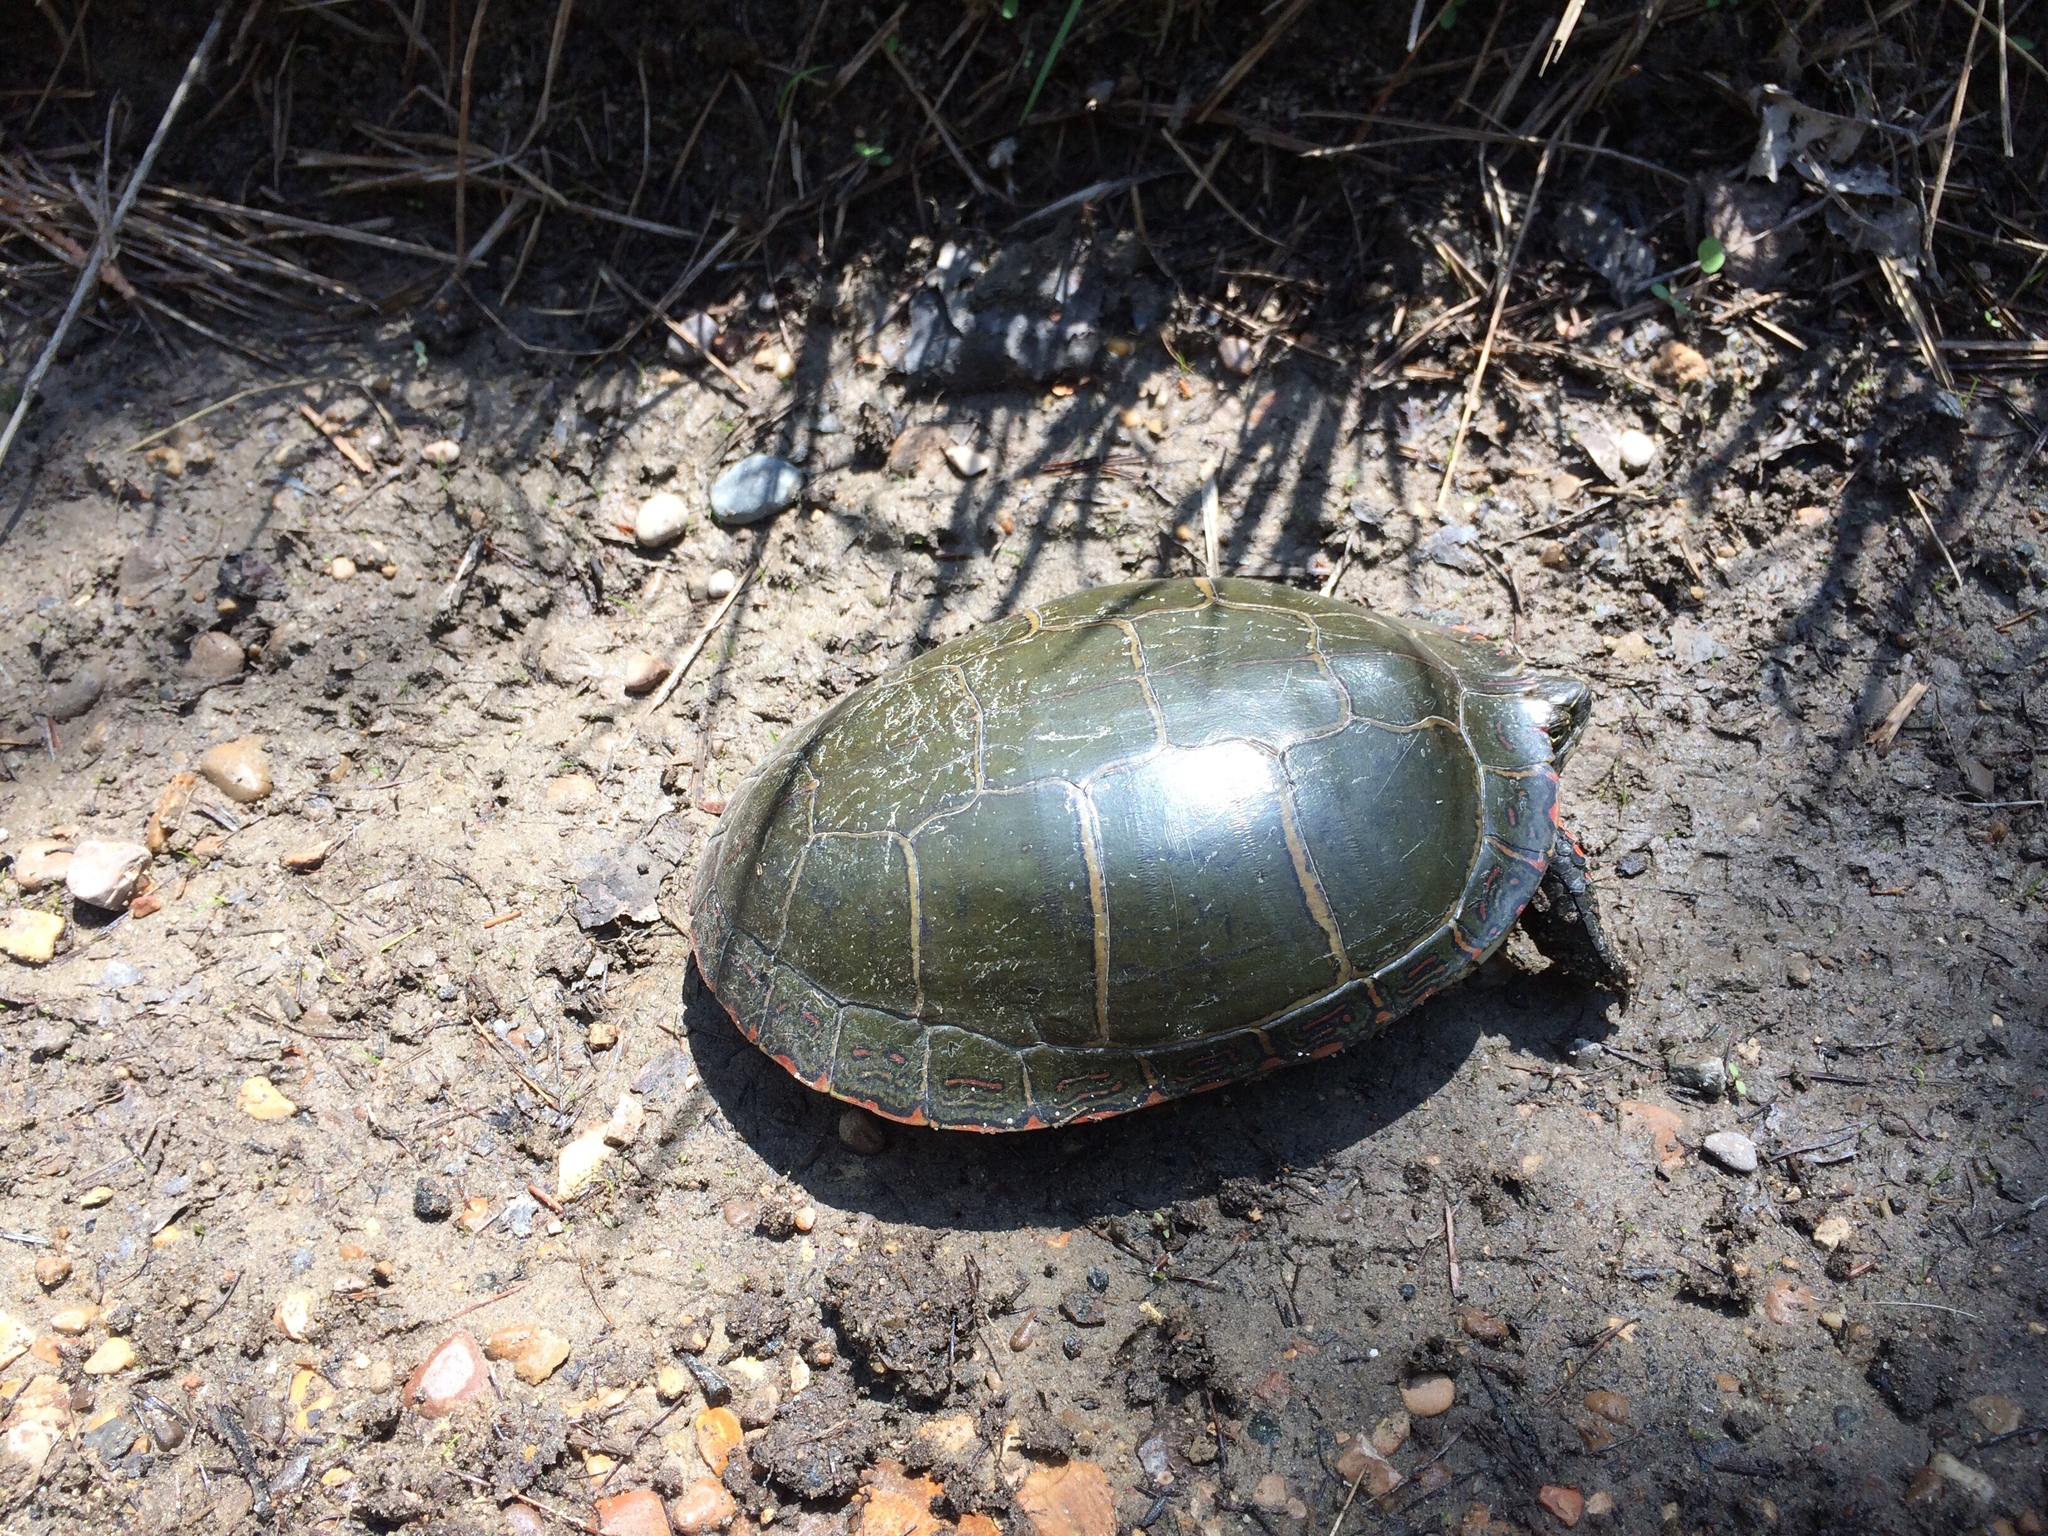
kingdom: Animalia
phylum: Chordata
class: Testudines
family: Emydidae
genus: Chrysemys
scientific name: Chrysemys picta
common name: Painted turtle
